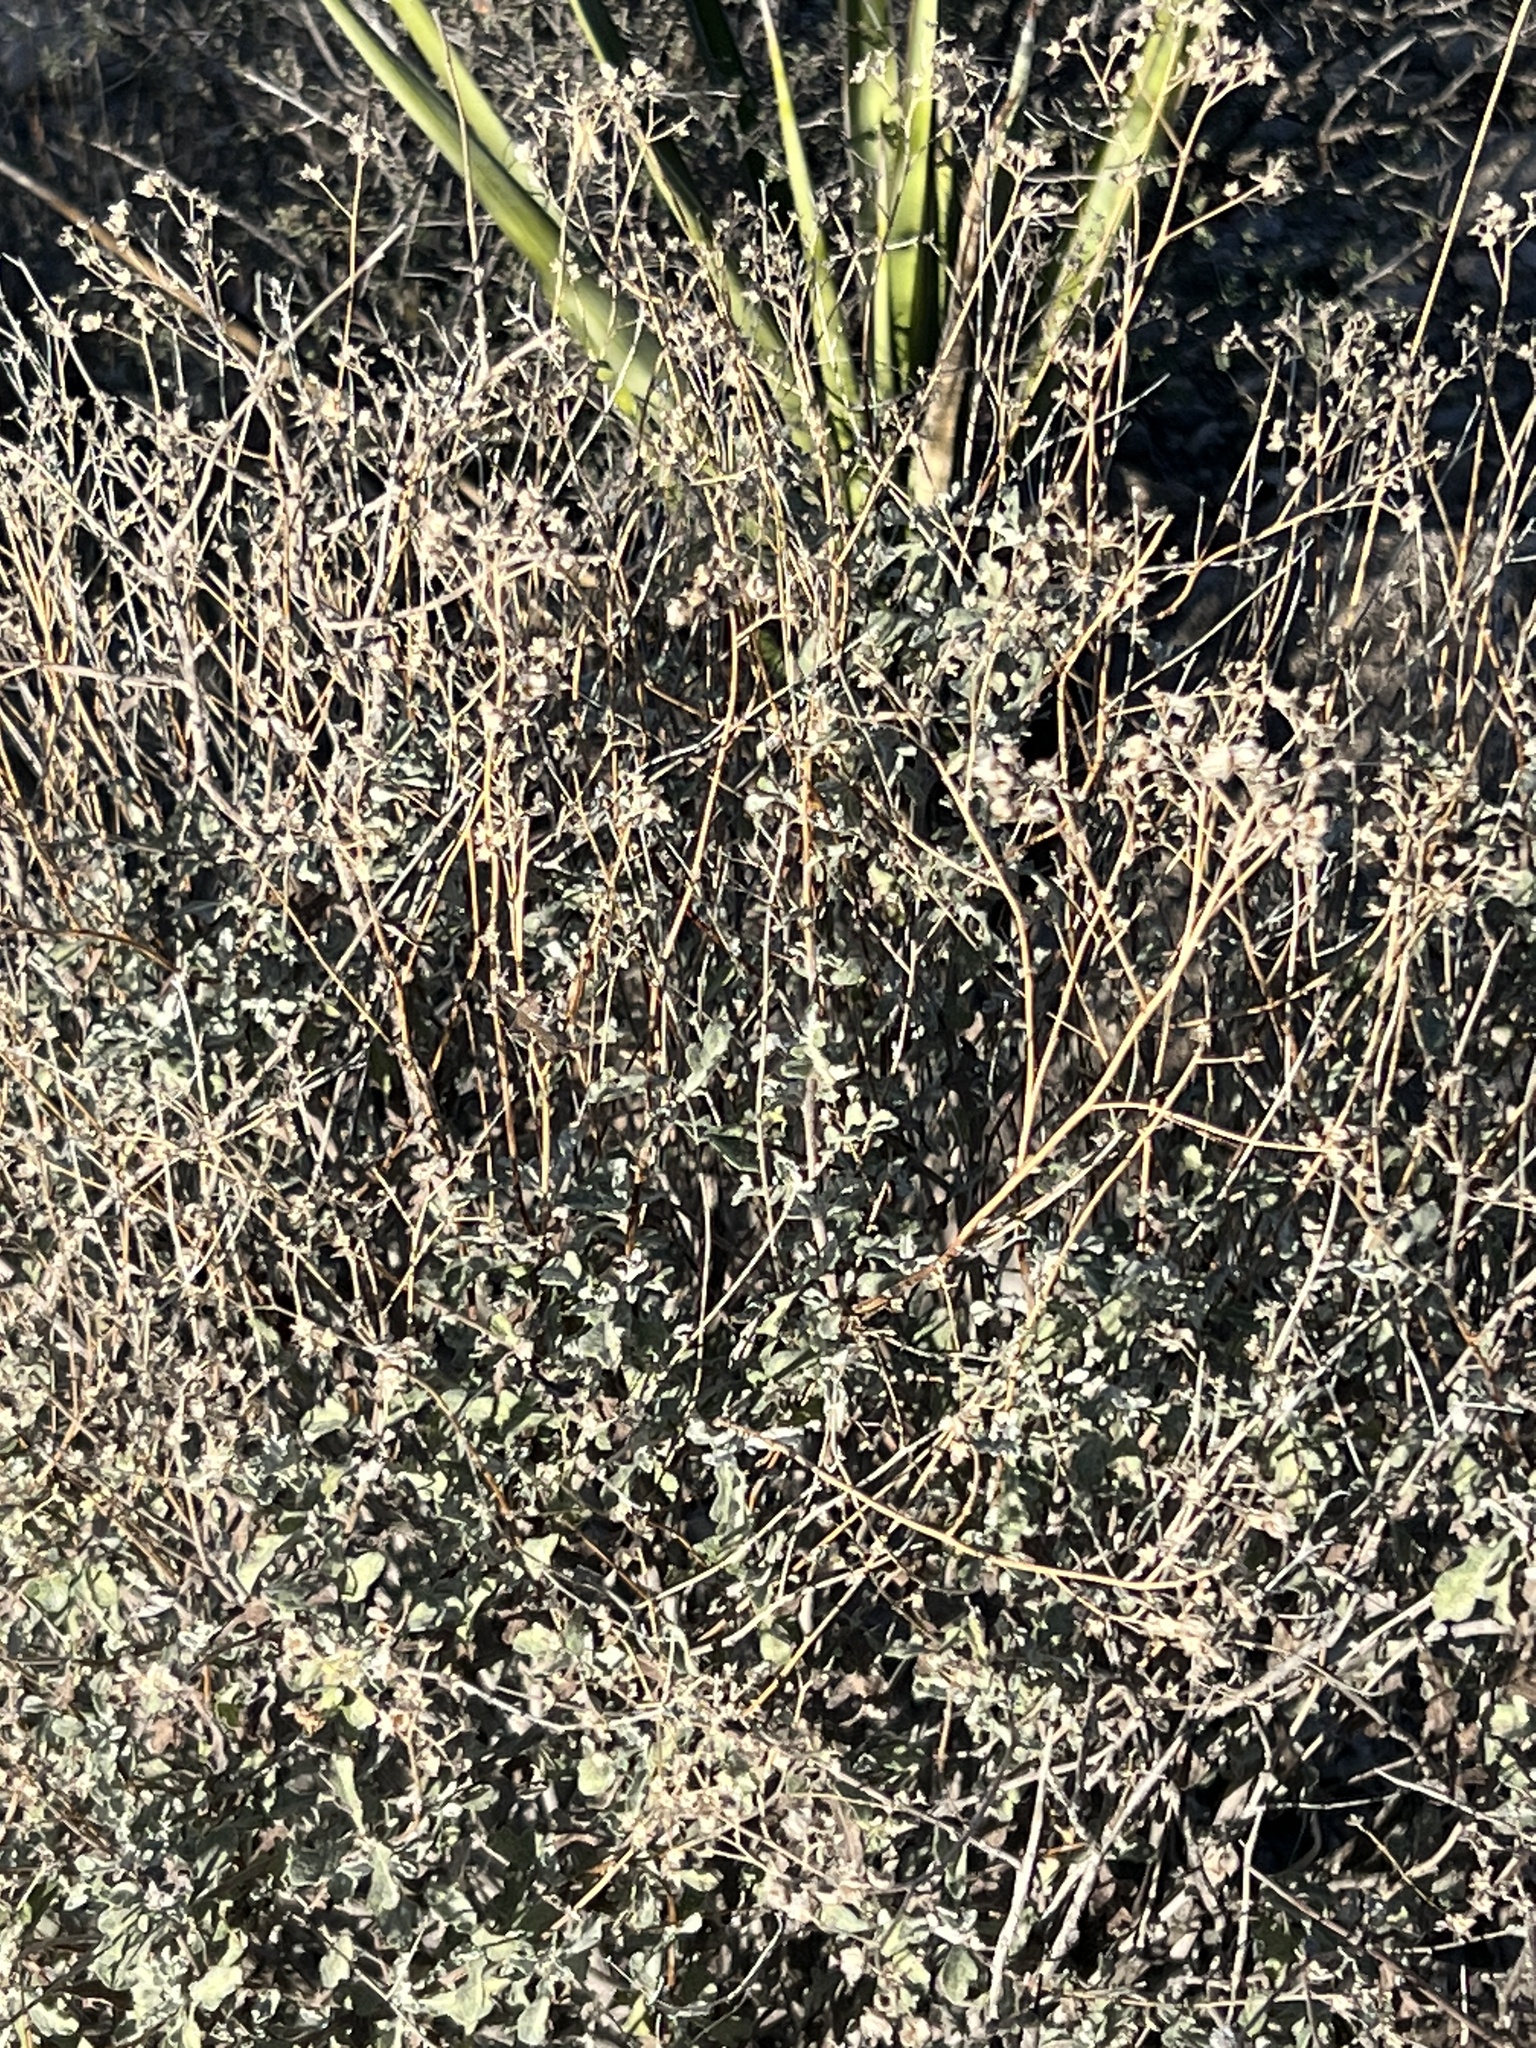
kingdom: Plantae
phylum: Tracheophyta
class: Magnoliopsida
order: Asterales
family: Asteraceae
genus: Parthenium
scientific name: Parthenium incanum
